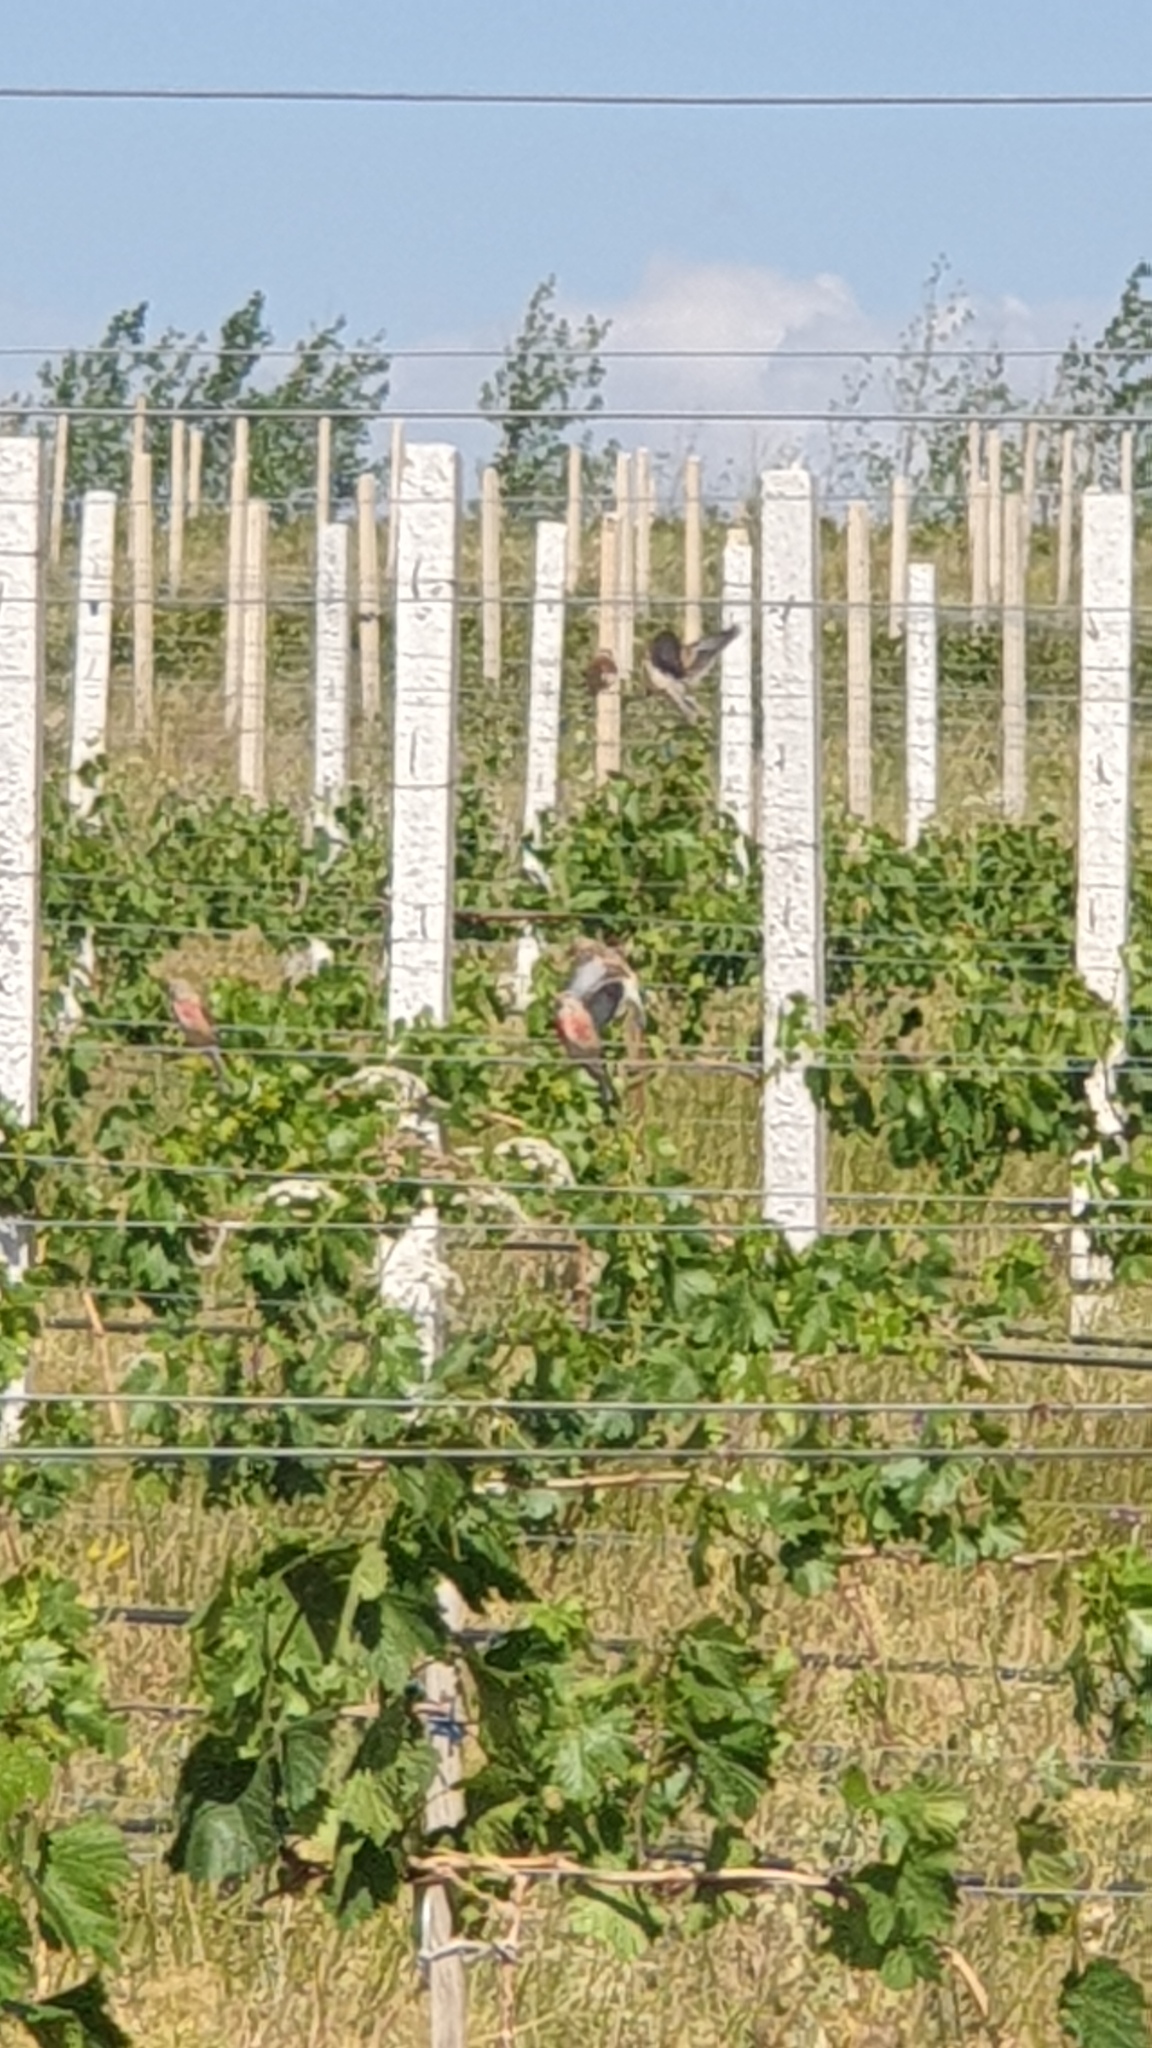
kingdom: Animalia
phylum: Chordata
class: Aves
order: Passeriformes
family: Fringillidae
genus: Linaria
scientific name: Linaria cannabina
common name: Common linnet
